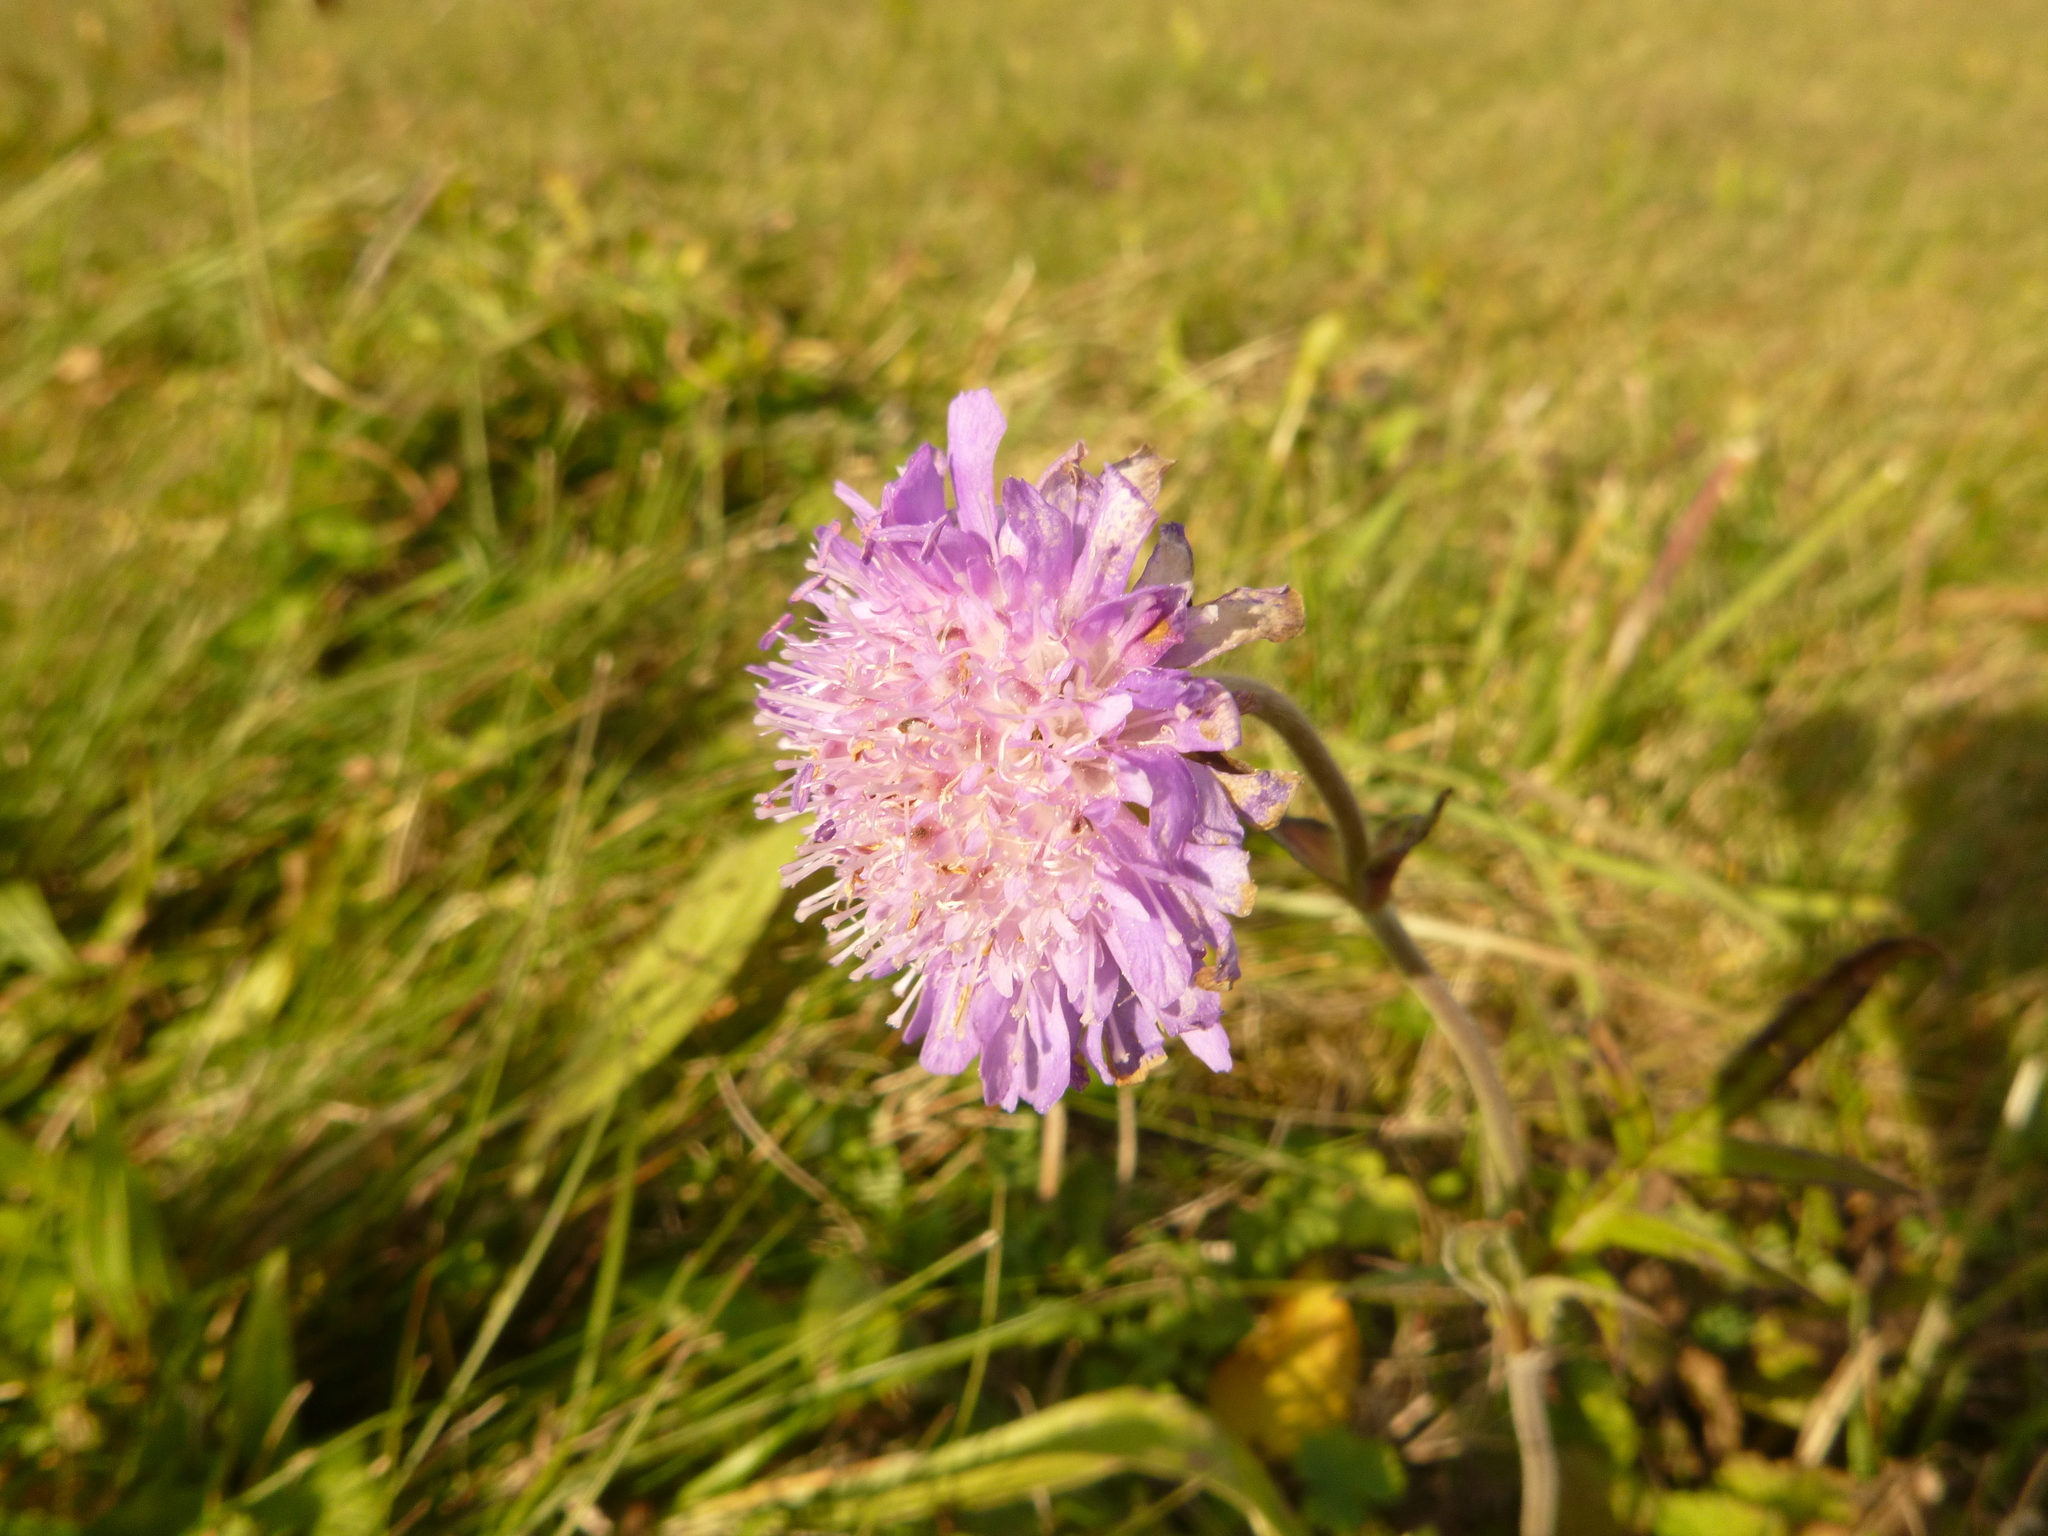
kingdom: Plantae
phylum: Tracheophyta
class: Magnoliopsida
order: Dipsacales
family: Caprifoliaceae
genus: Knautia
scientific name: Knautia arvensis
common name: Field scabiosa
